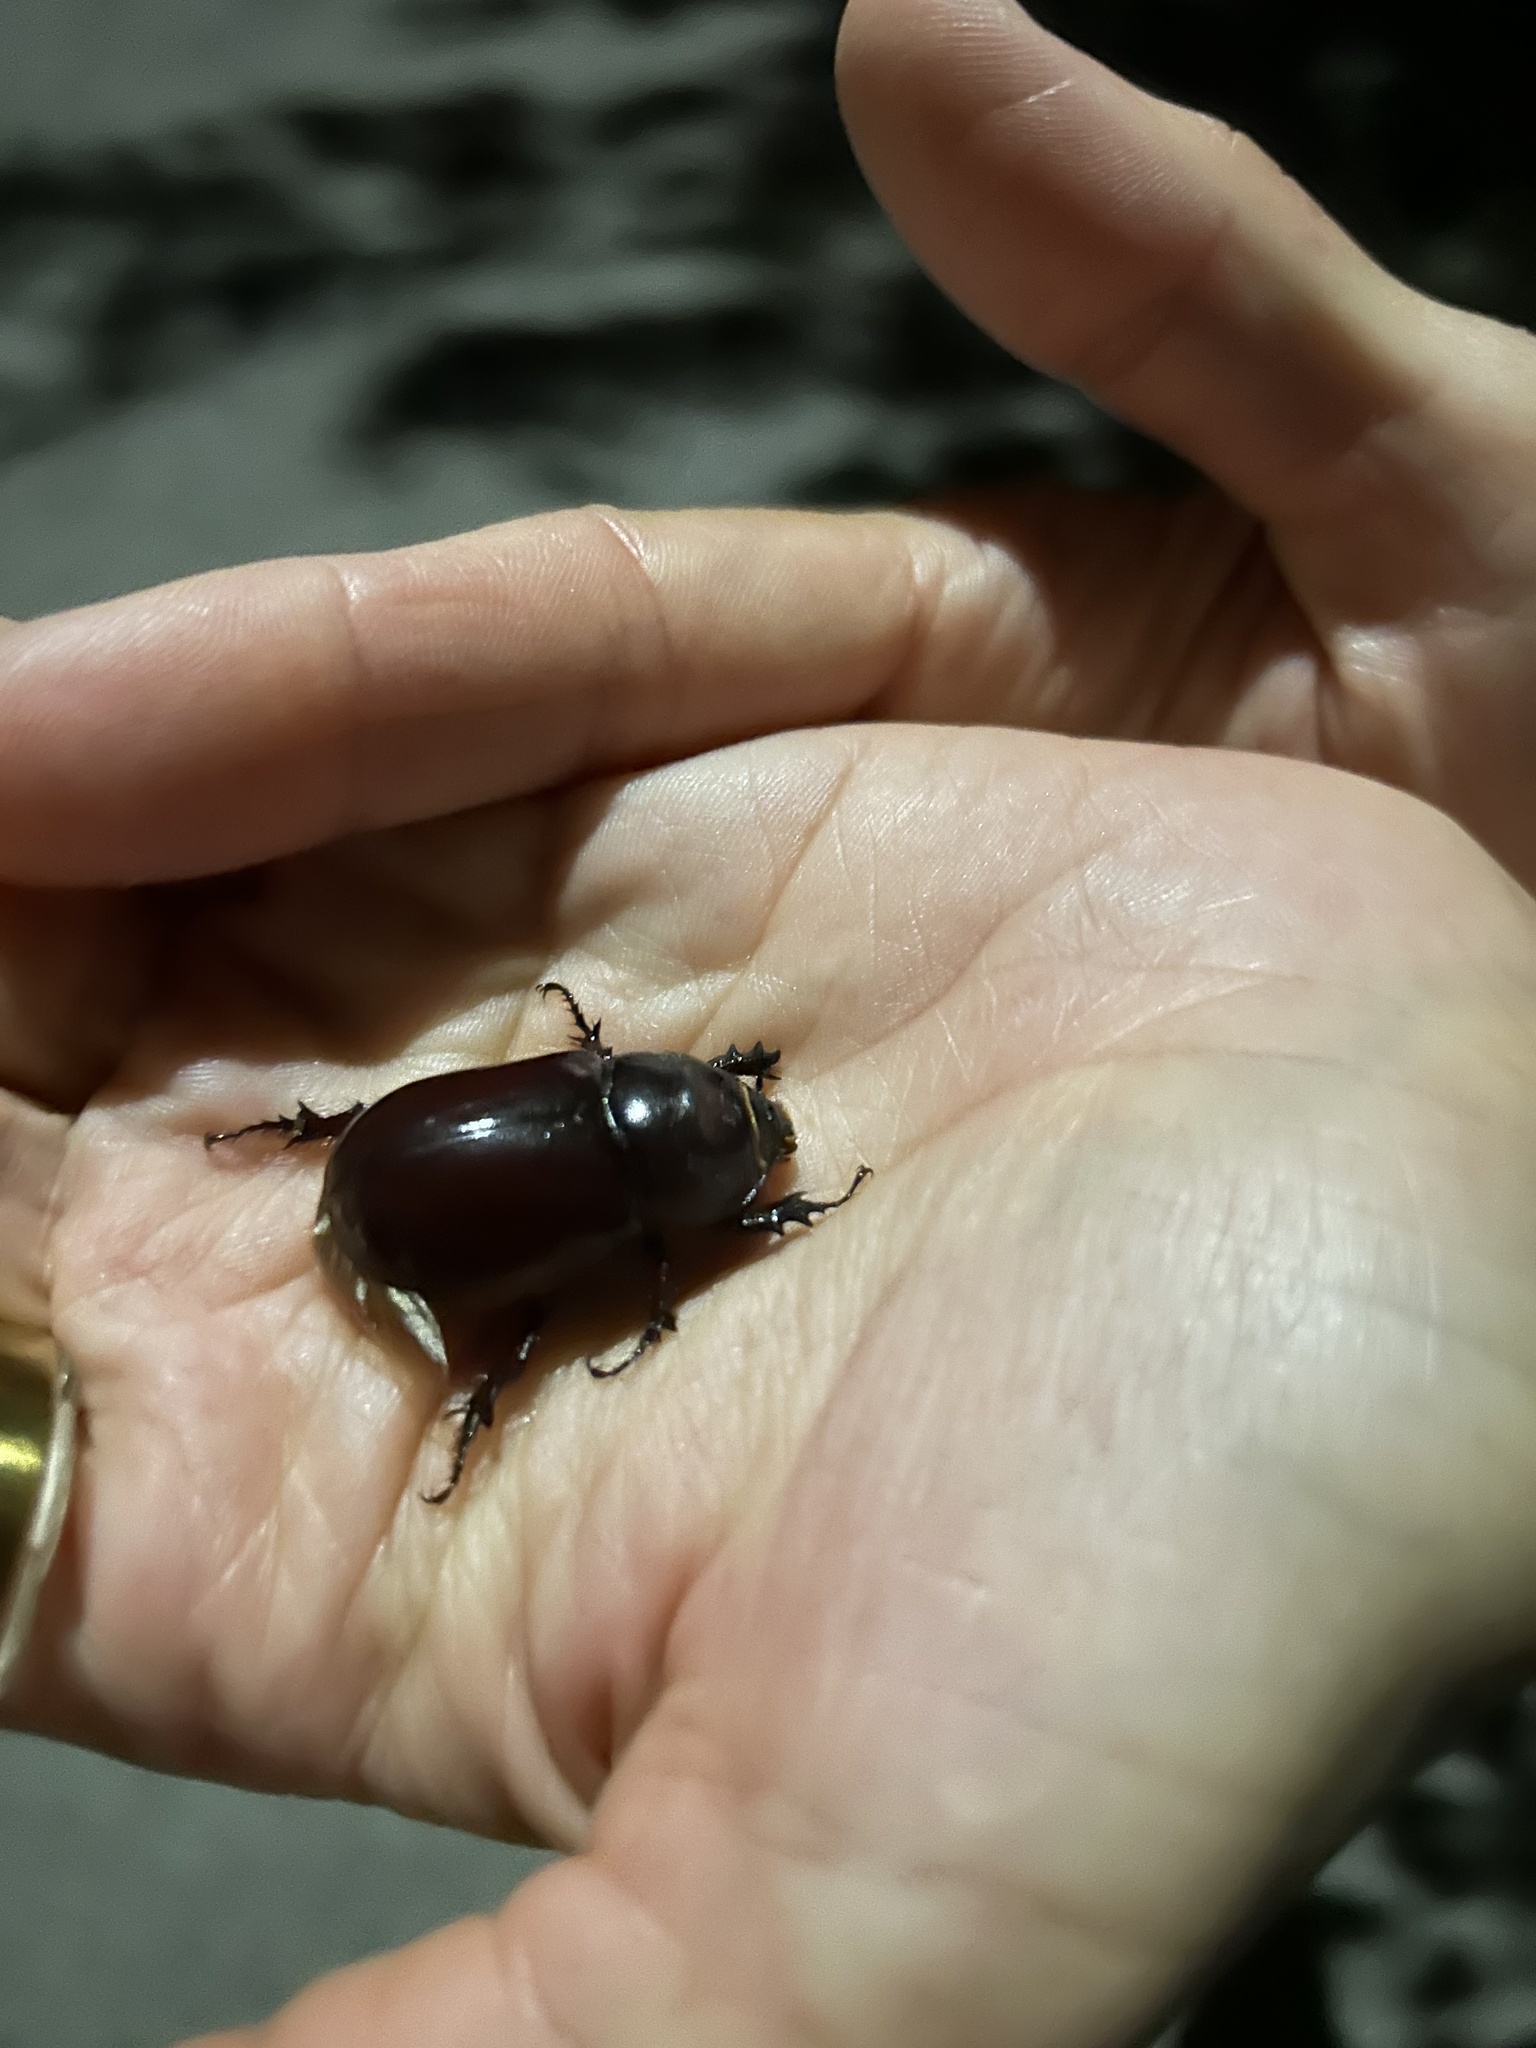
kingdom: Animalia
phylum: Arthropoda
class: Insecta
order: Coleoptera
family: Scarabaeidae
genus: Oryctes
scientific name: Oryctes nasicornis
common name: European rhinoceros beetle
